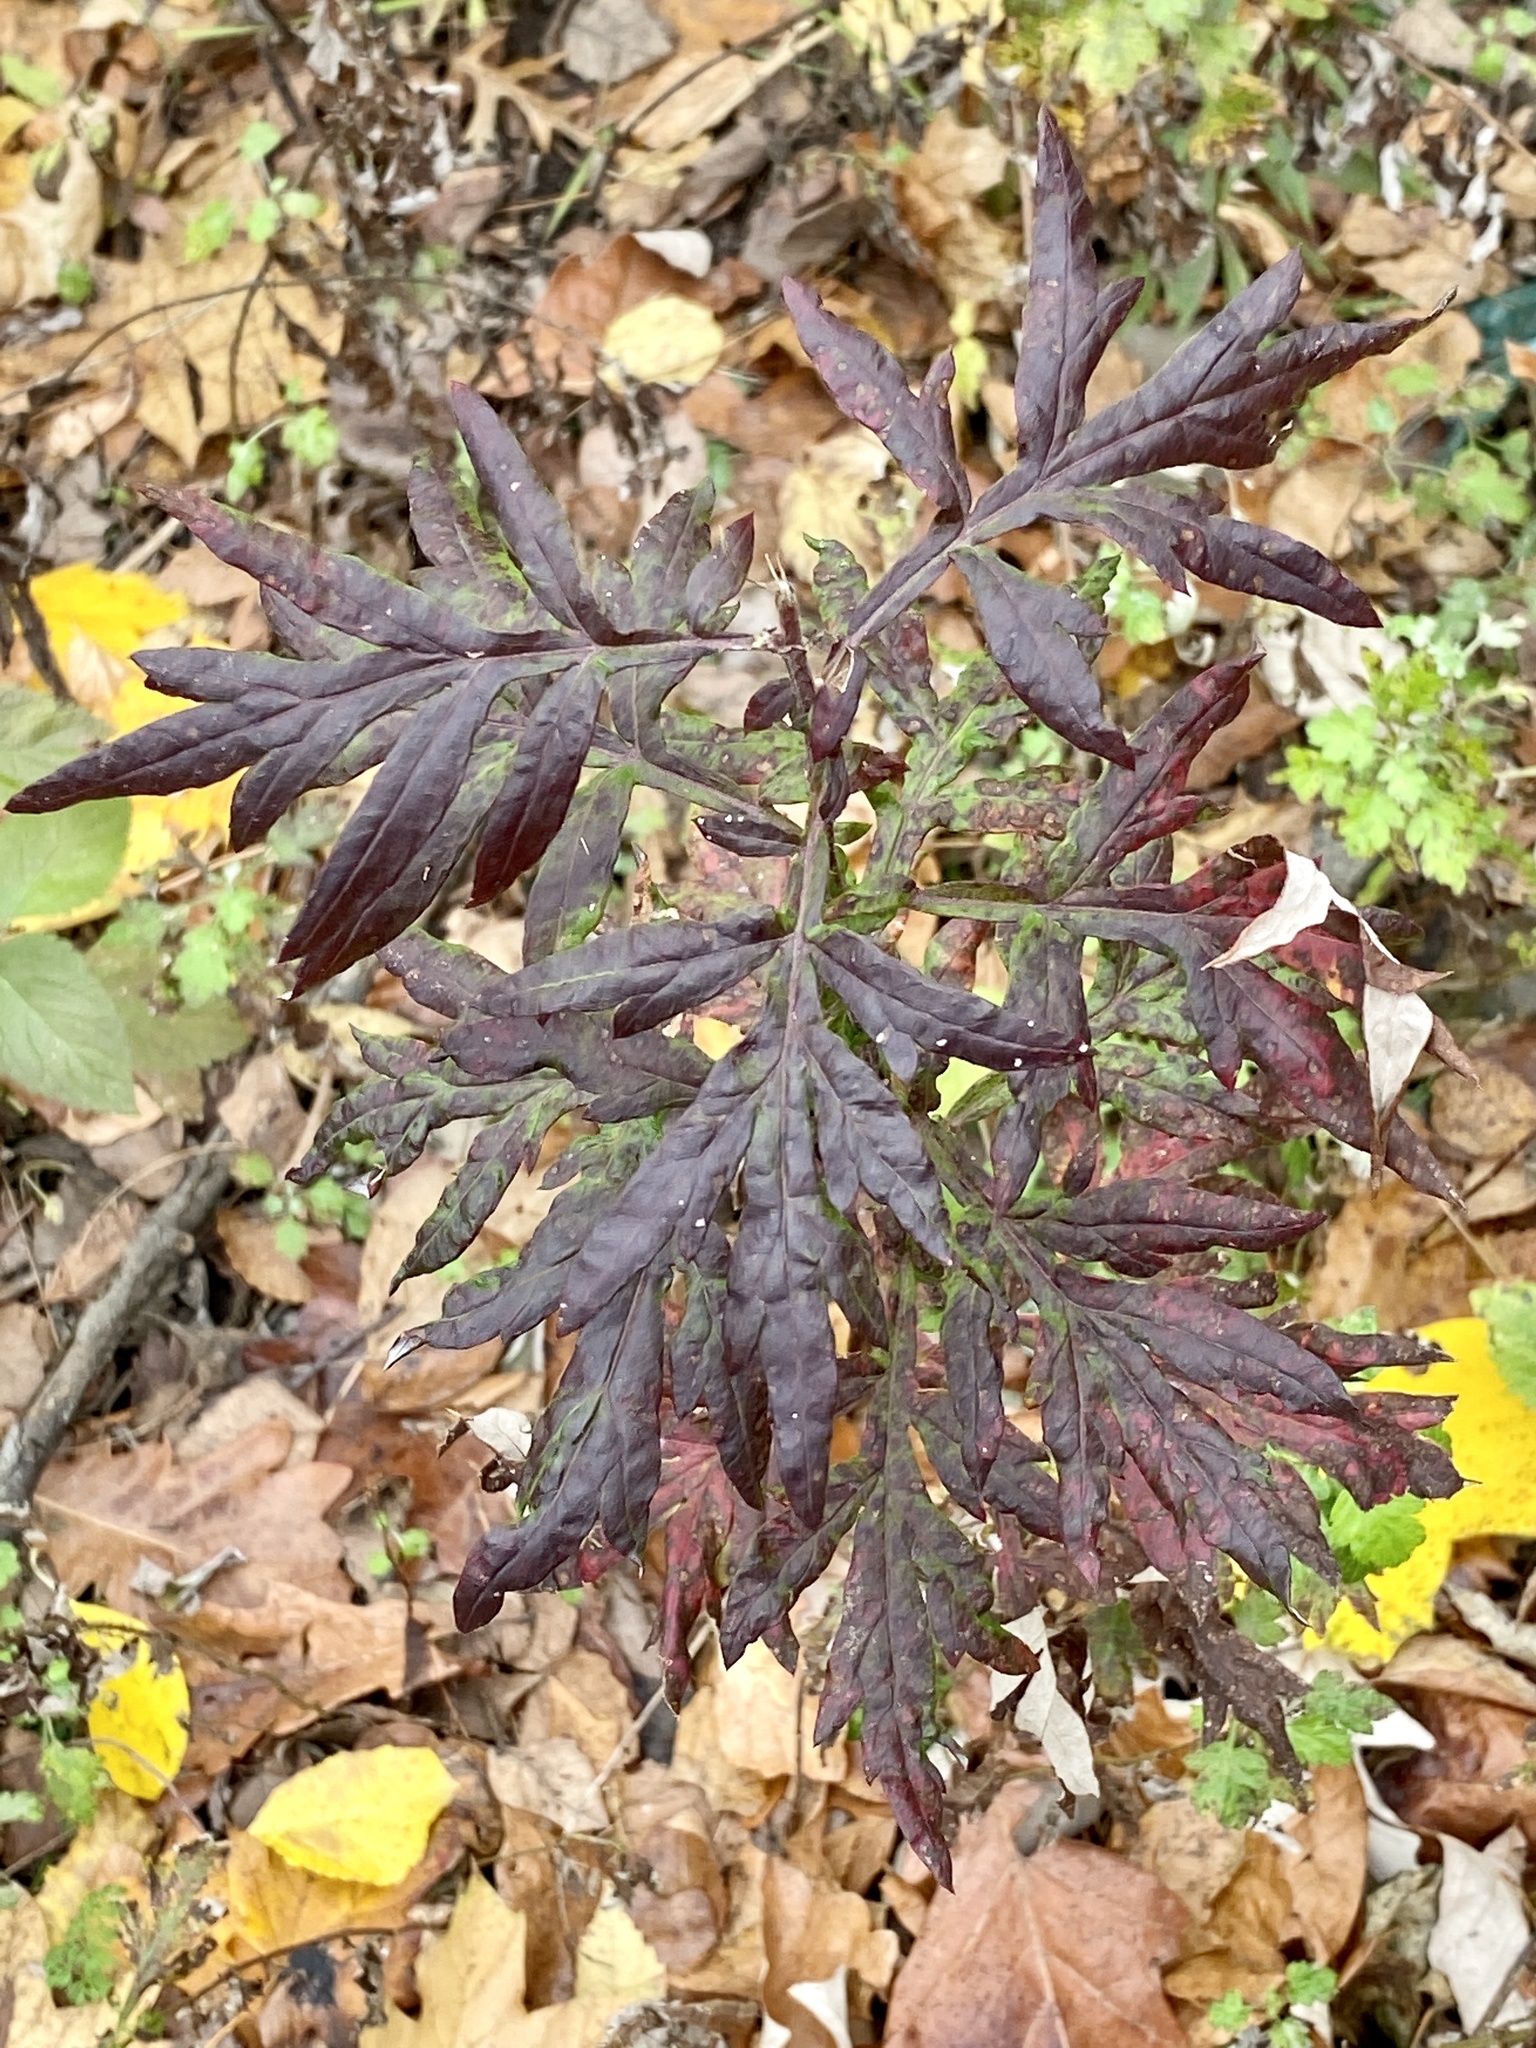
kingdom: Plantae
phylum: Tracheophyta
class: Magnoliopsida
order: Asterales
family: Asteraceae
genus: Artemisia
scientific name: Artemisia vulgaris
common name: Mugwort
